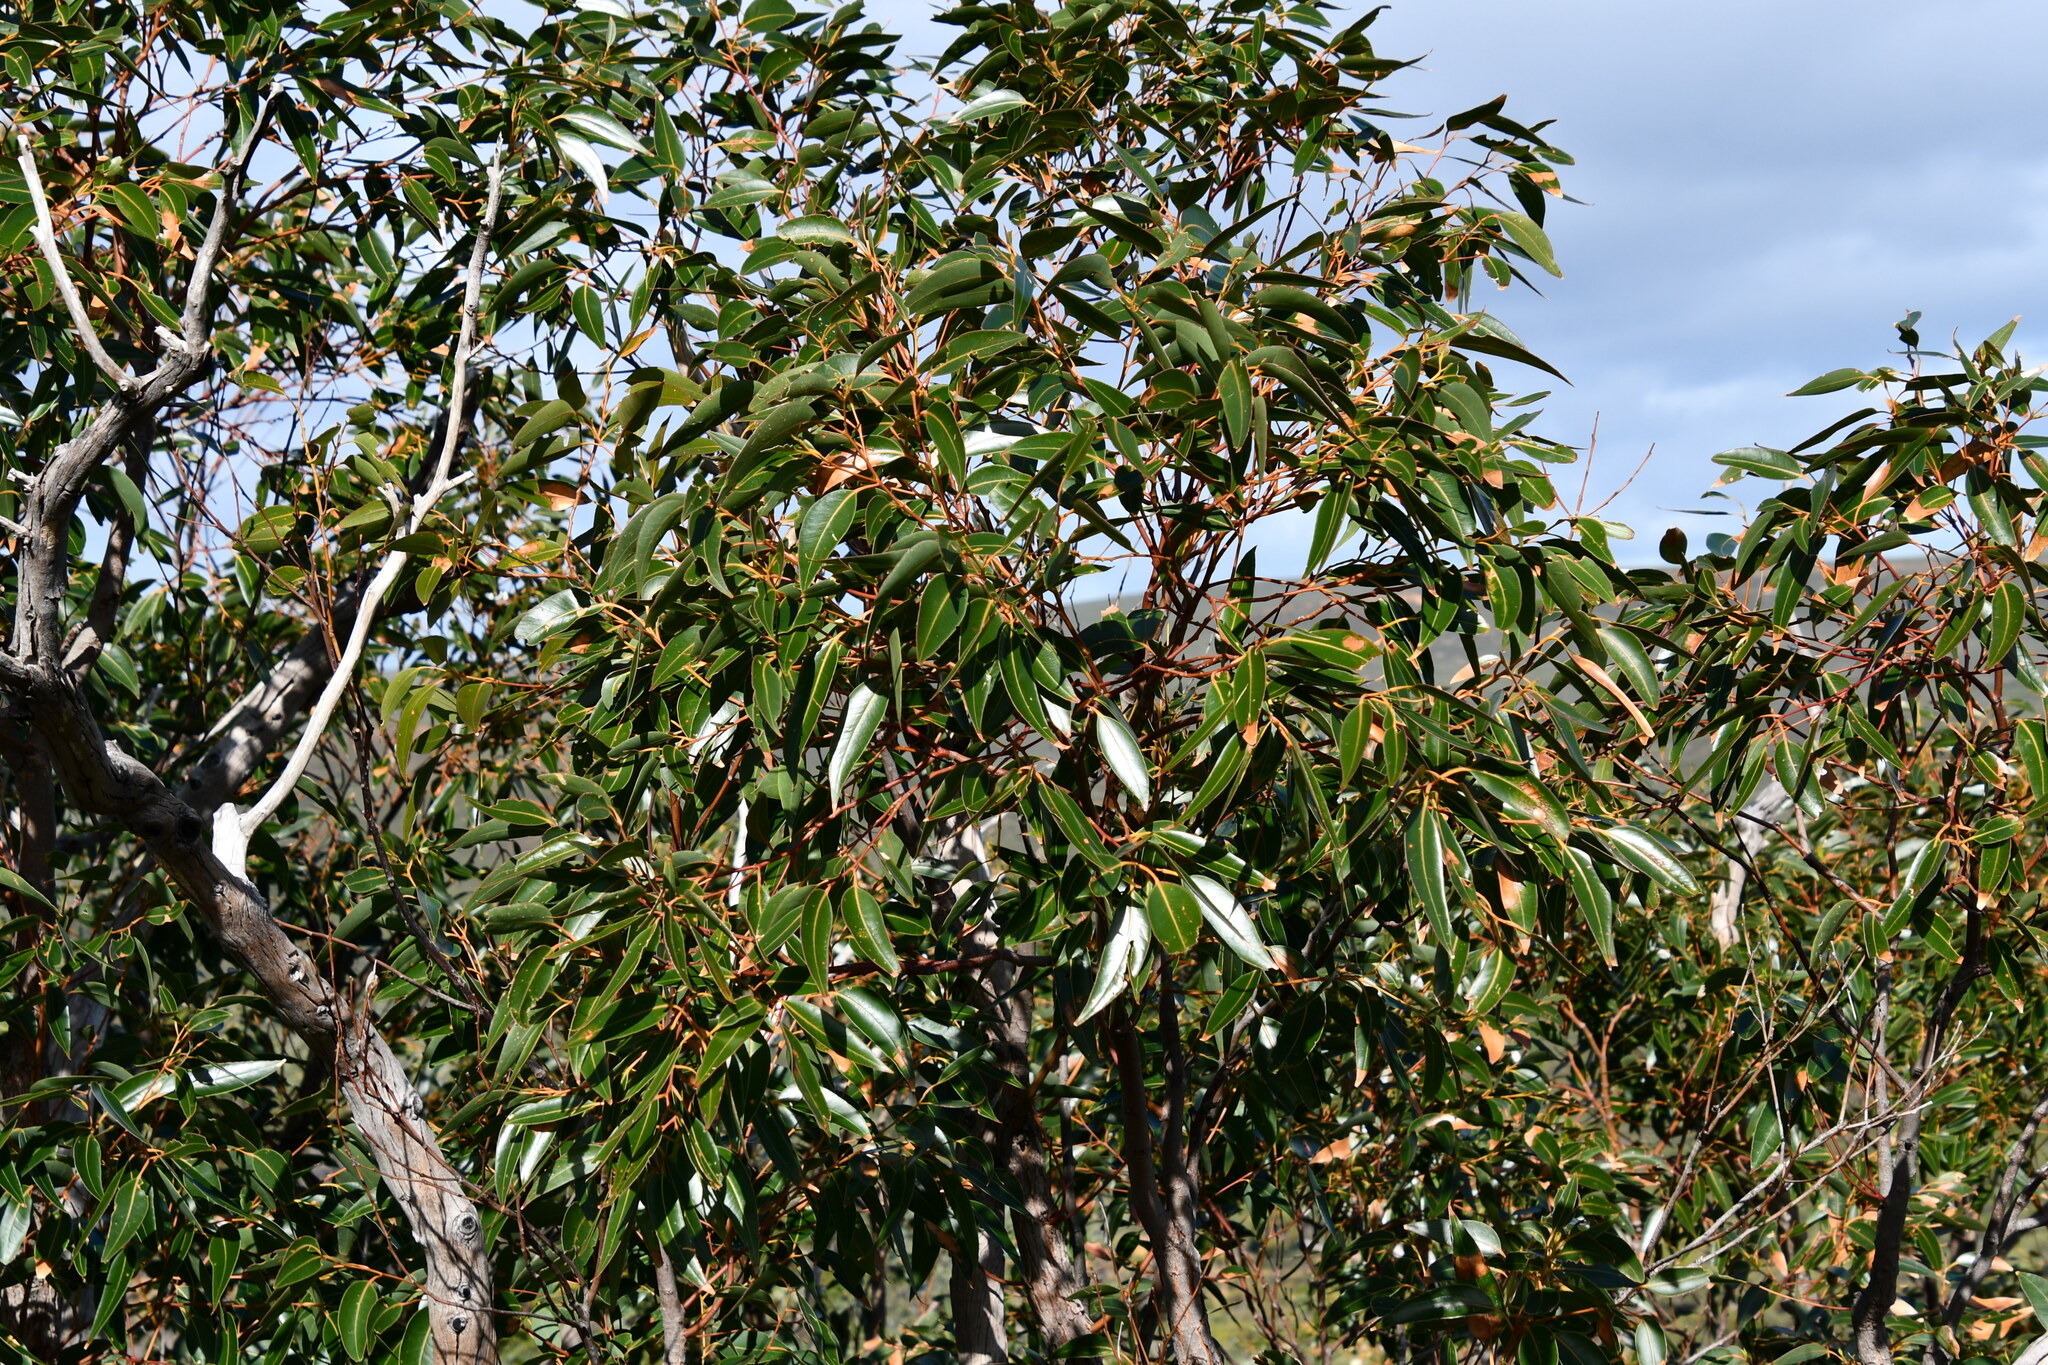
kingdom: Plantae
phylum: Tracheophyta
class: Magnoliopsida
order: Myrtales
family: Myrtaceae
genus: Eucalyptus
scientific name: Eucalyptus marginata
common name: Jarrah
